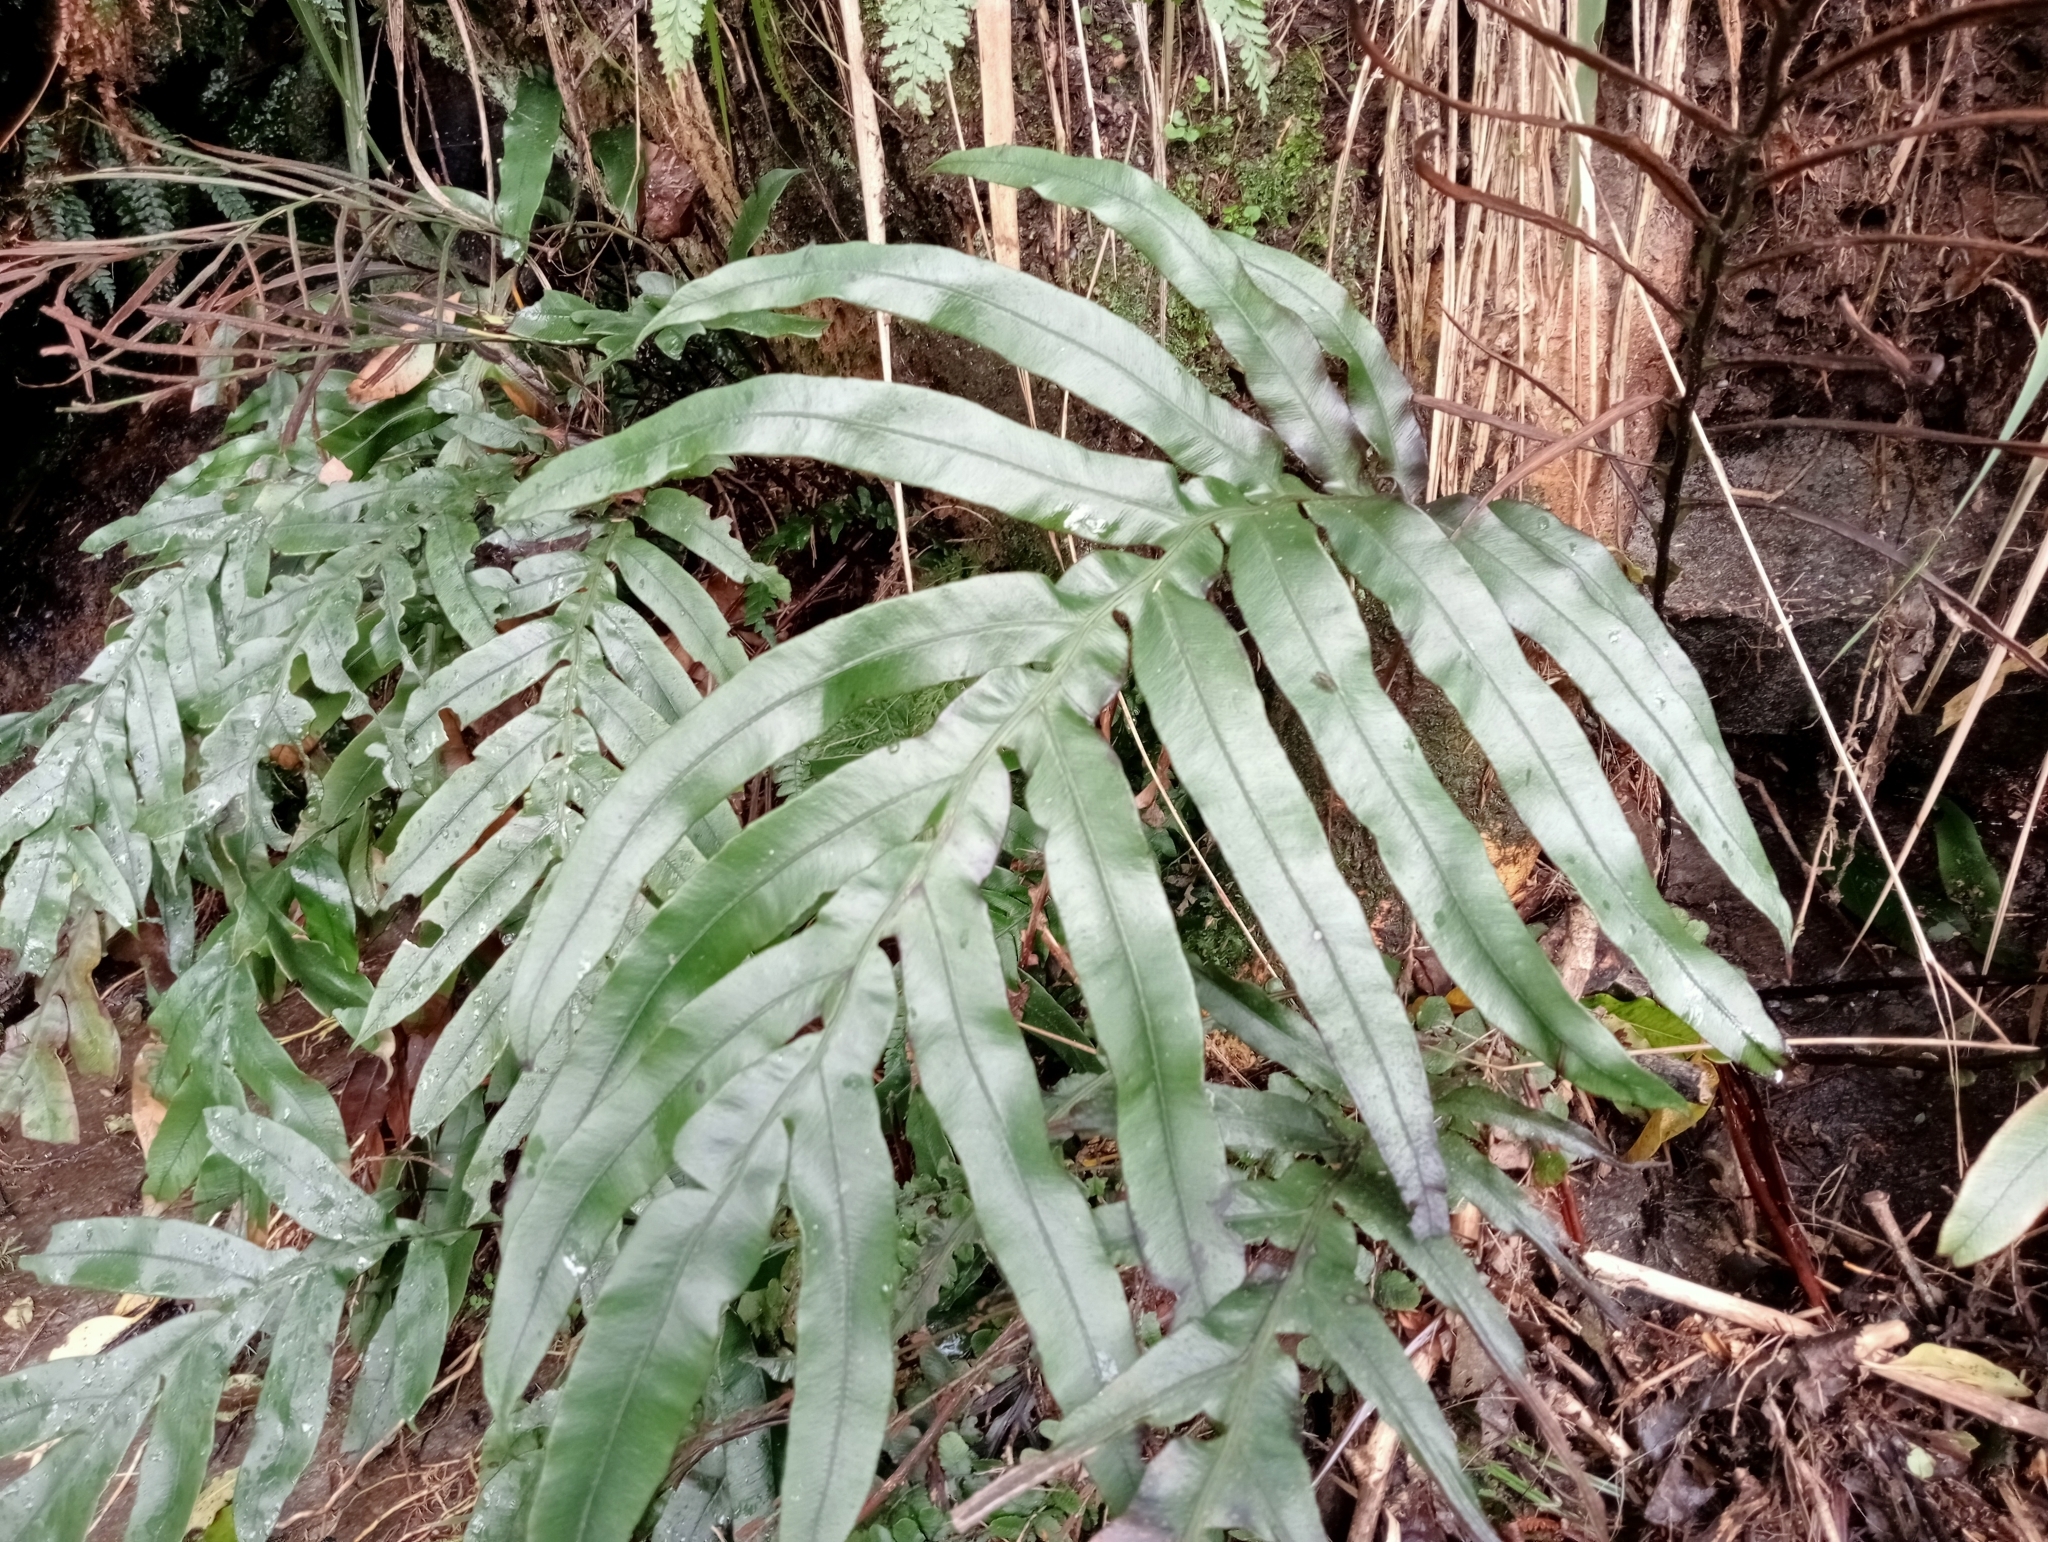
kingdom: Plantae
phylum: Tracheophyta
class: Polypodiopsida
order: Polypodiales
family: Blechnaceae
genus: Austroblechnum
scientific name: Austroblechnum colensoi
